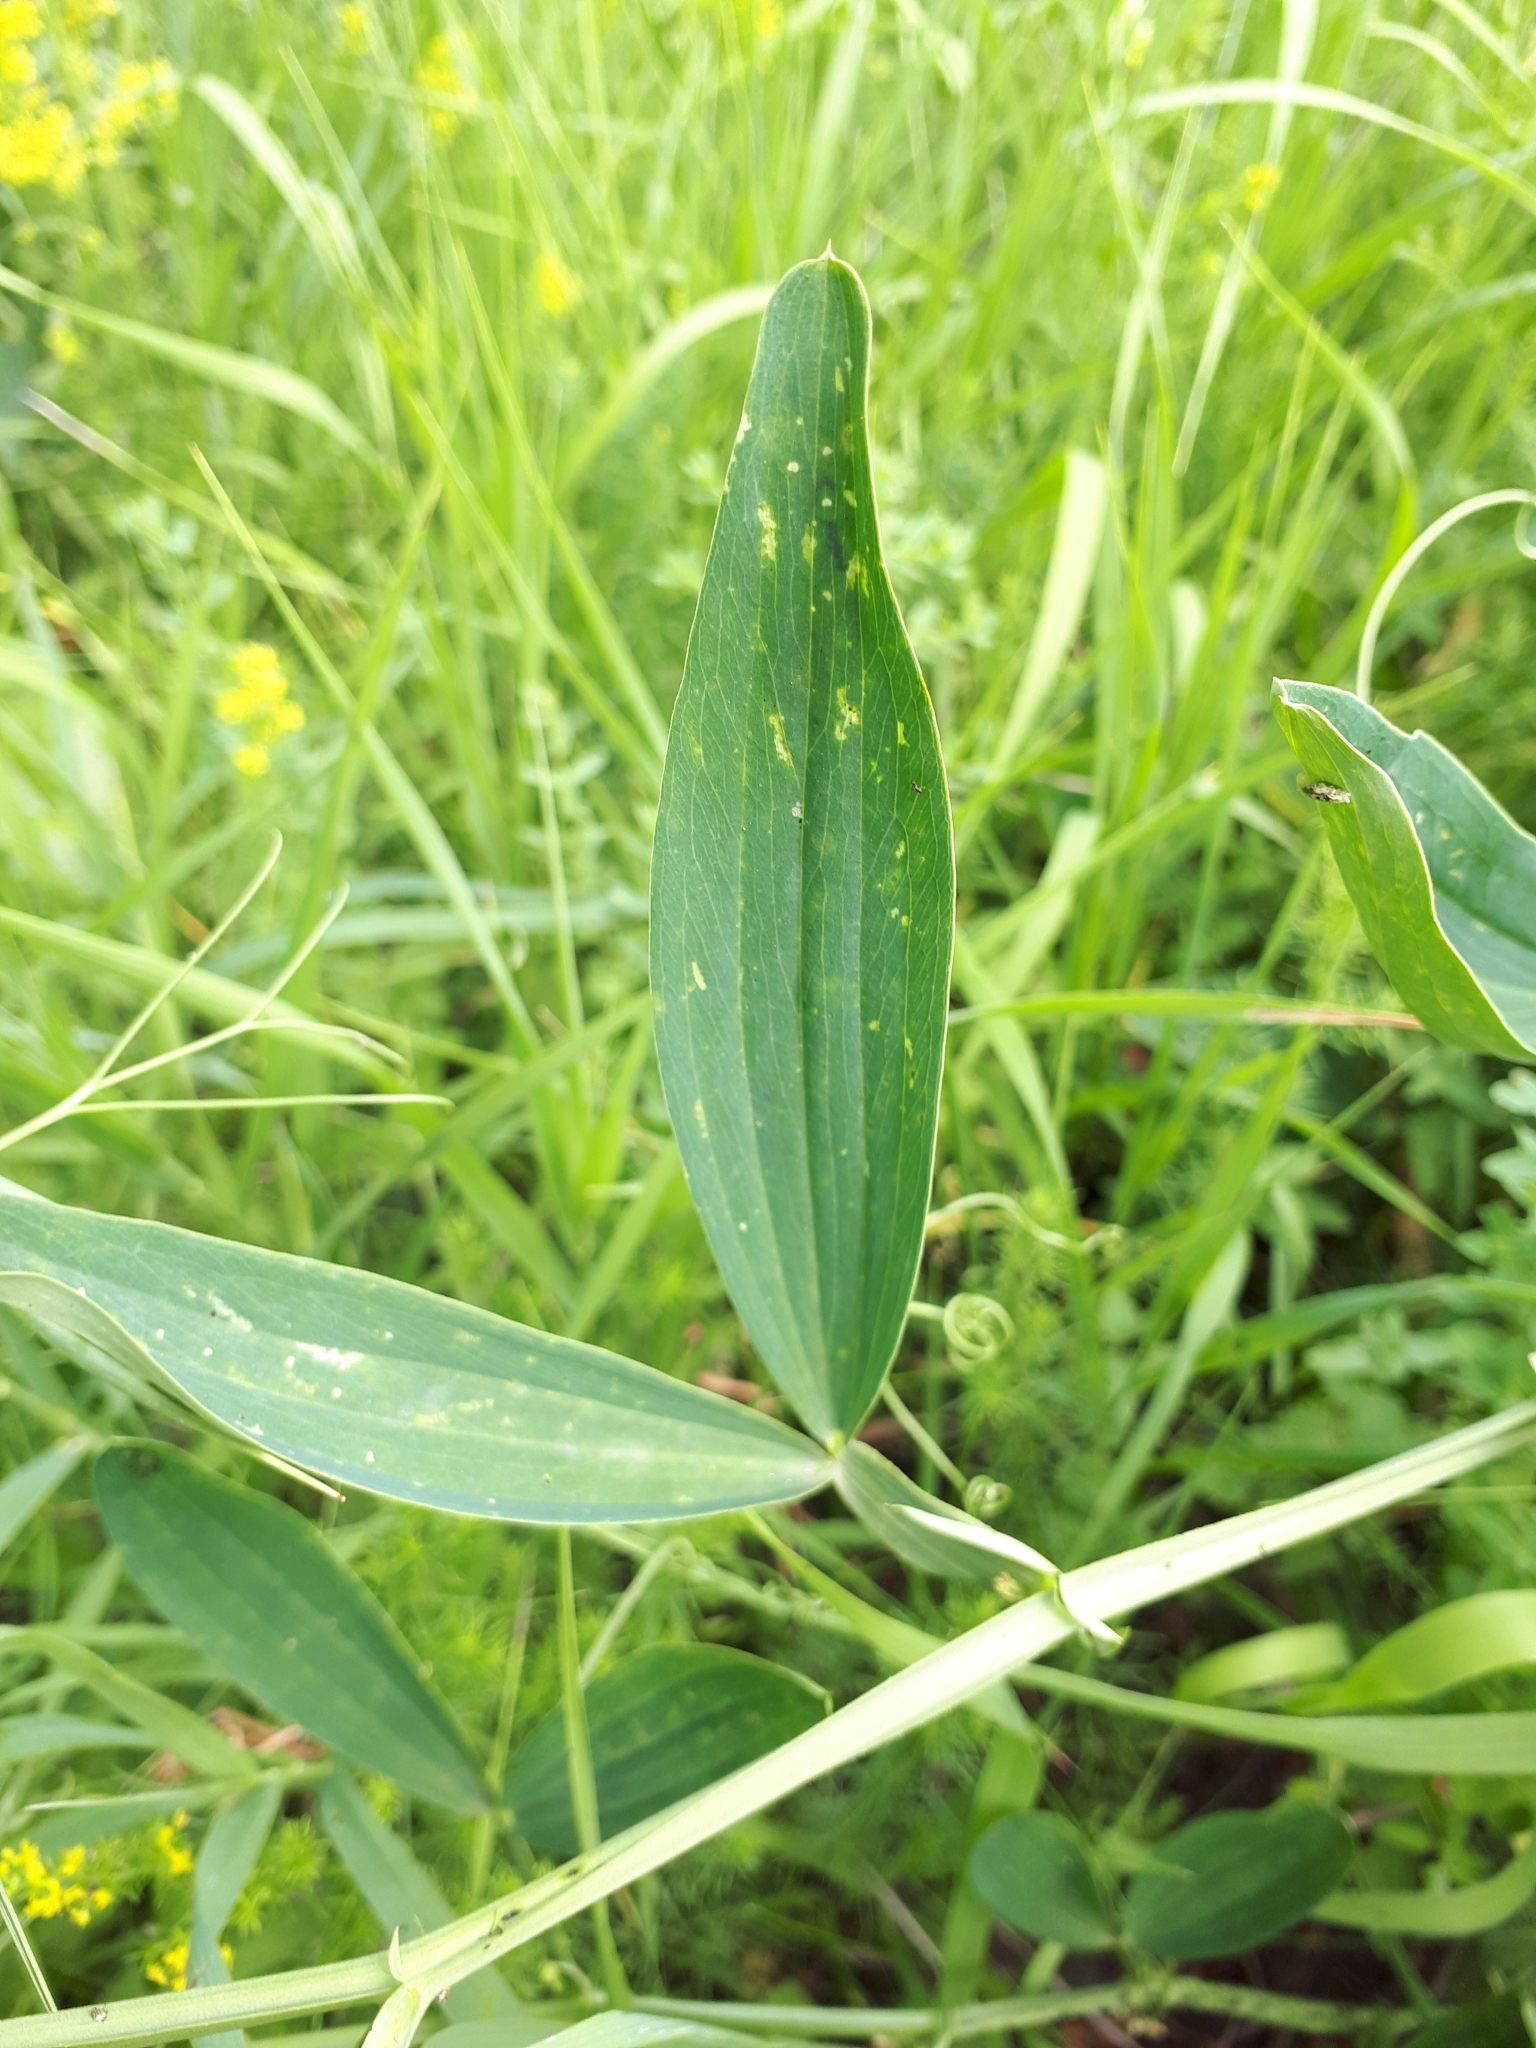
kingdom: Plantae
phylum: Tracheophyta
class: Magnoliopsida
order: Fabales
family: Fabaceae
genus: Lathyrus
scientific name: Lathyrus sylvestris
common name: Flat pea
